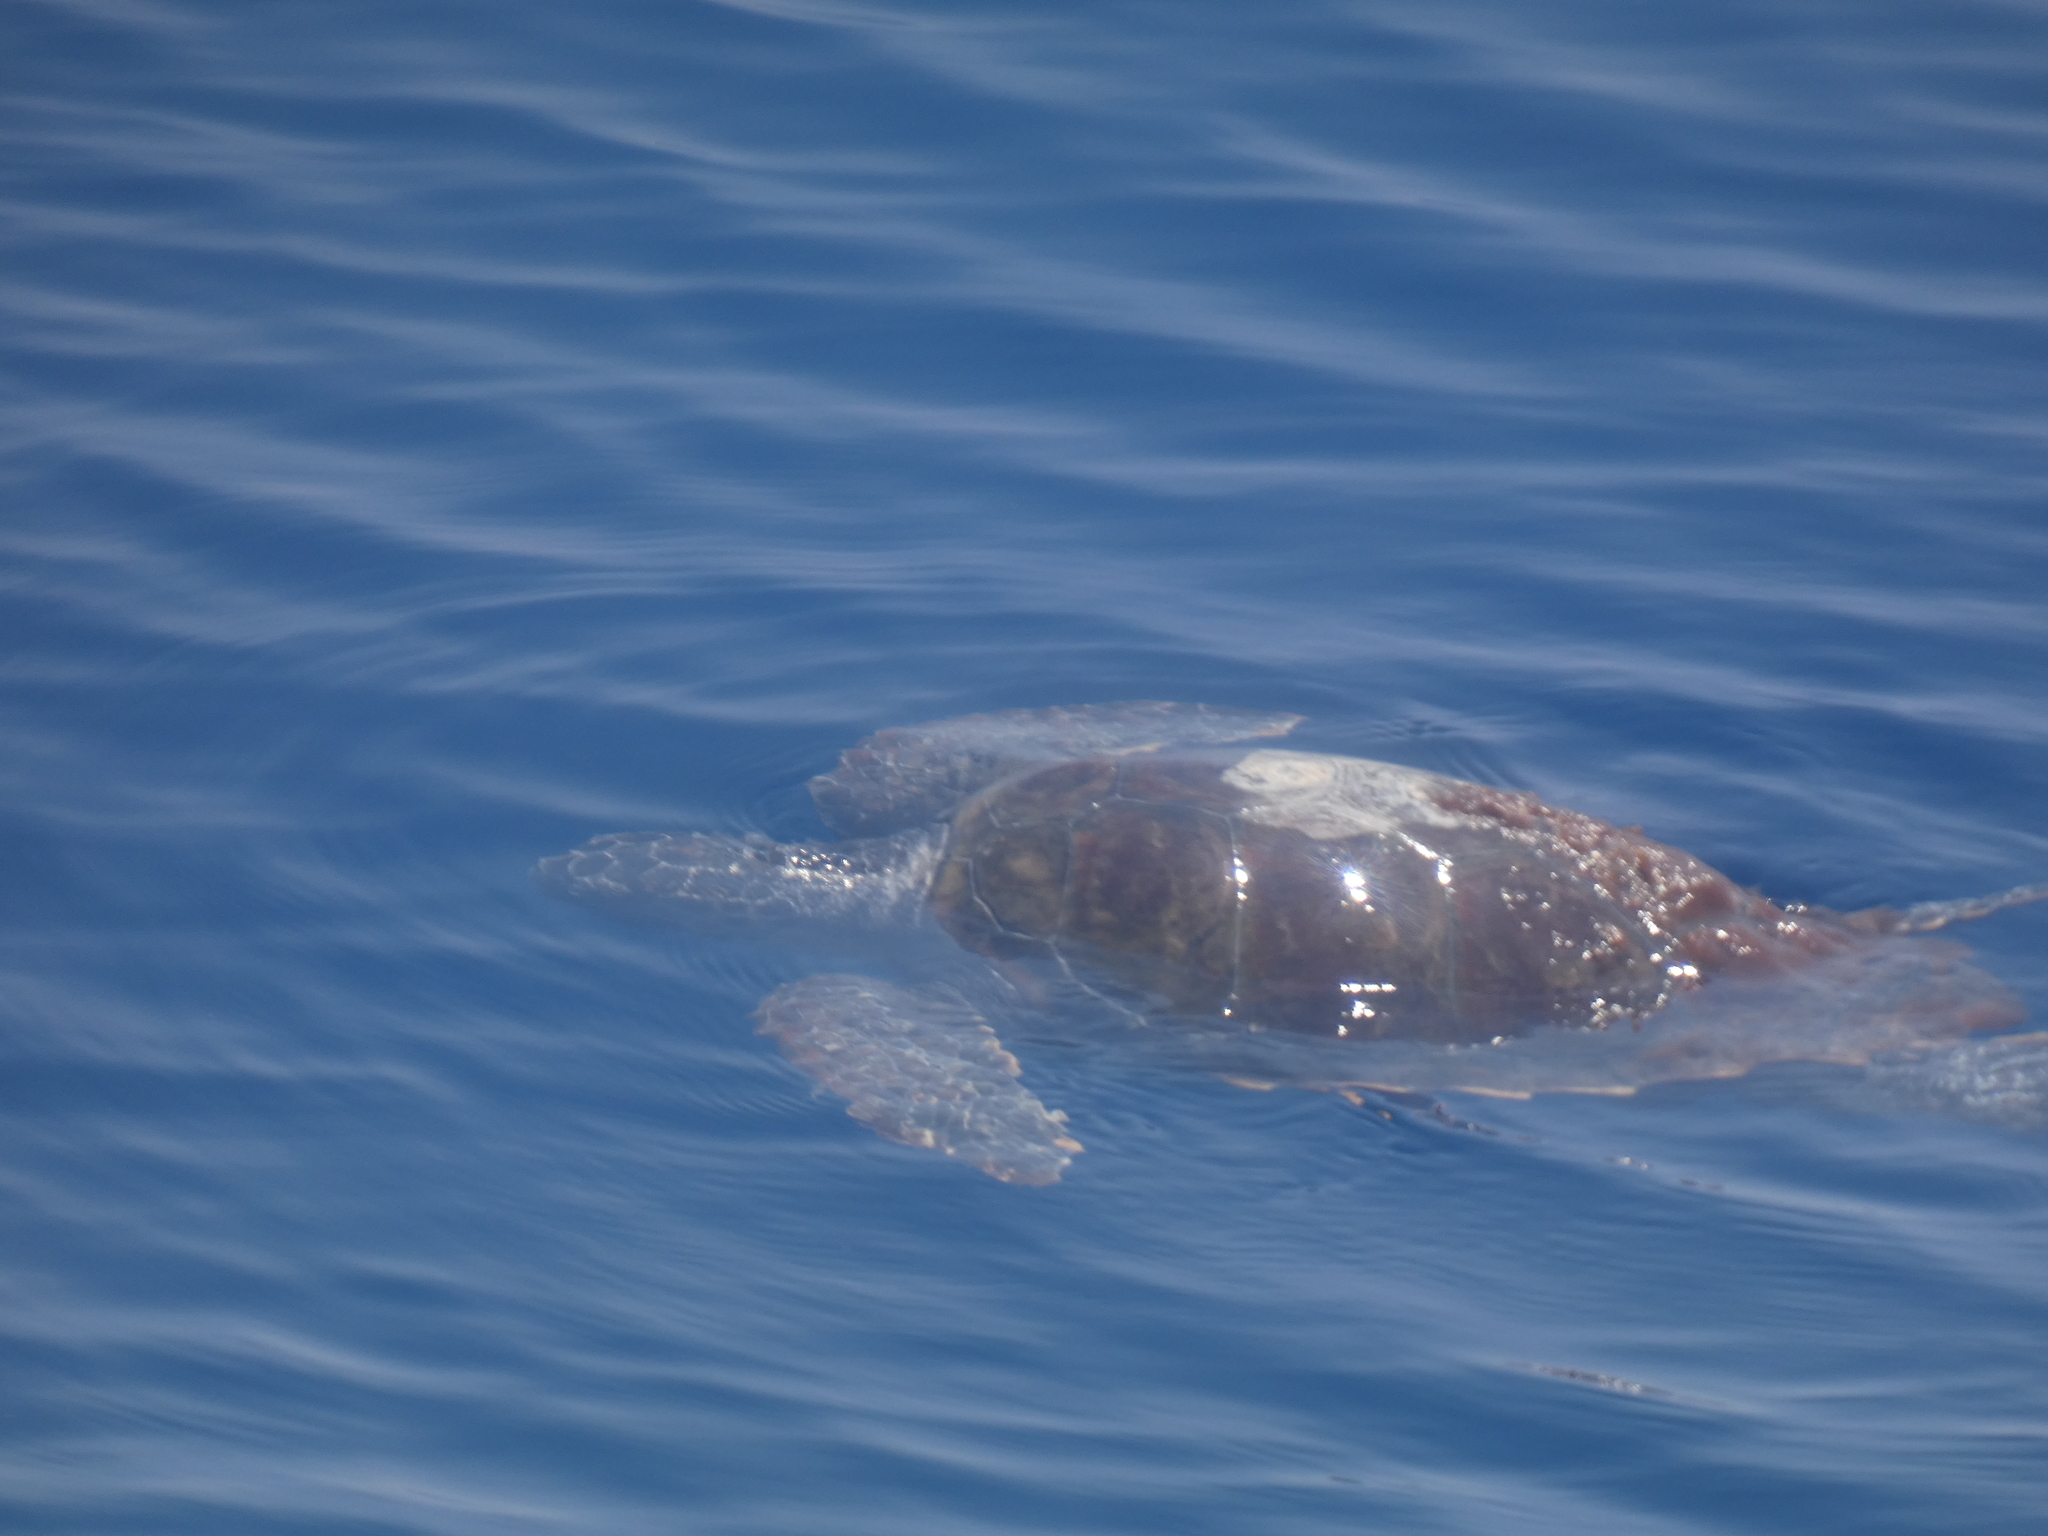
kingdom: Animalia
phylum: Chordata
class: Testudines
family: Cheloniidae
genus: Caretta
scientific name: Caretta caretta
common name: Loggerhead sea turtle
